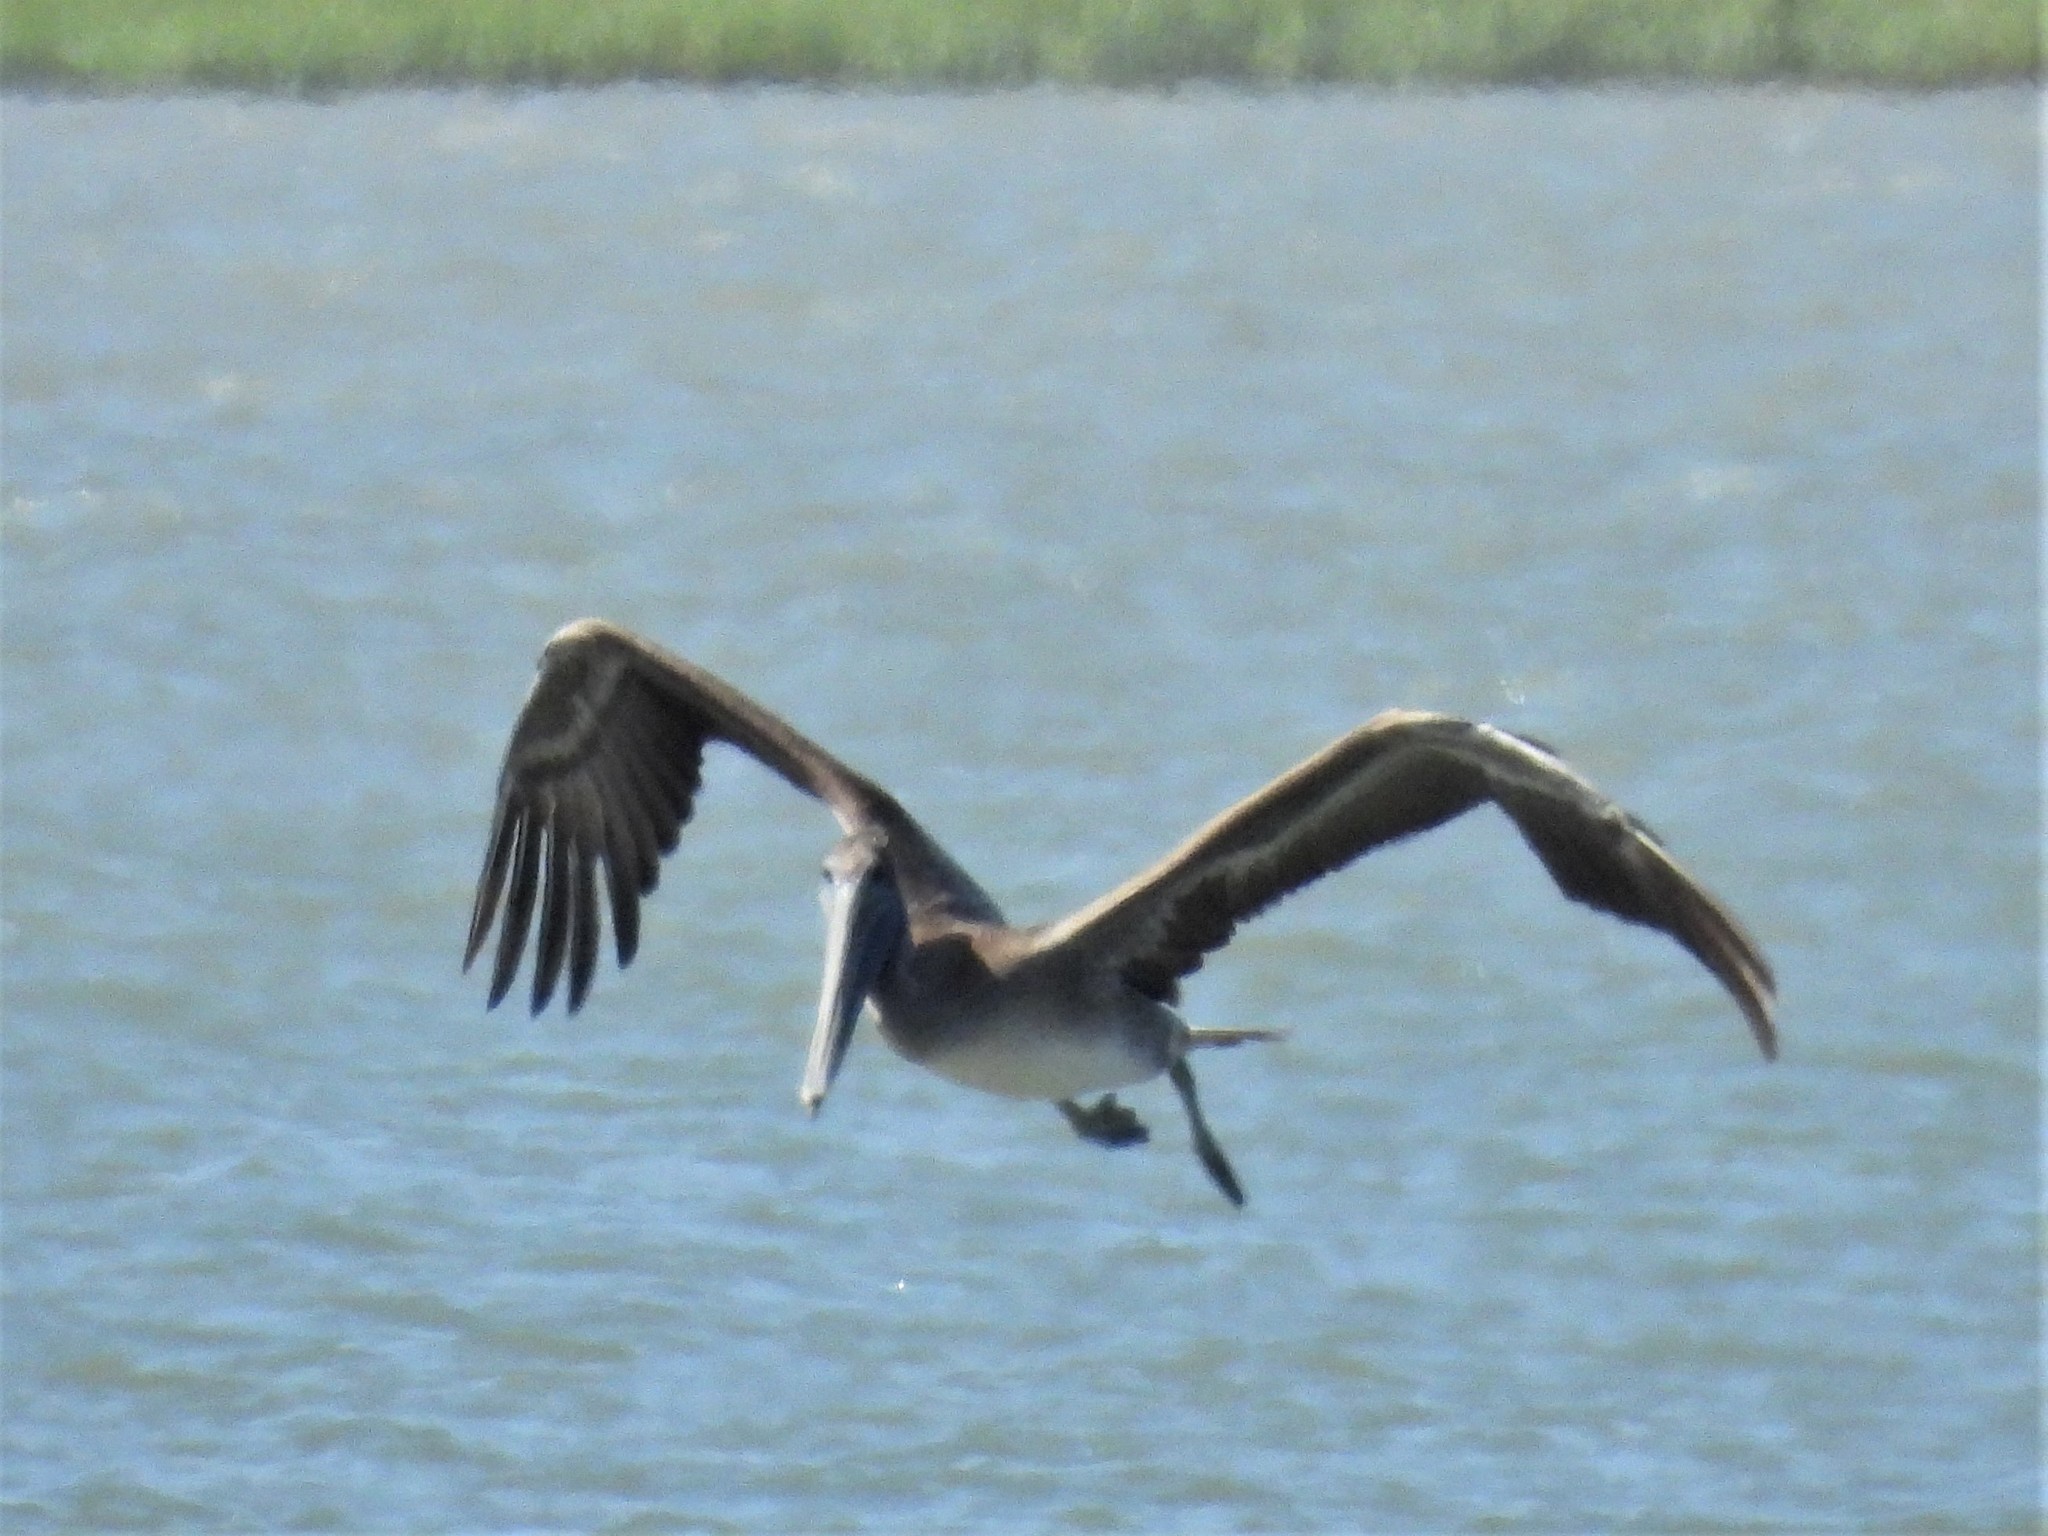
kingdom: Animalia
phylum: Chordata
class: Aves
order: Pelecaniformes
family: Pelecanidae
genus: Pelecanus
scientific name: Pelecanus occidentalis
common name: Brown pelican
